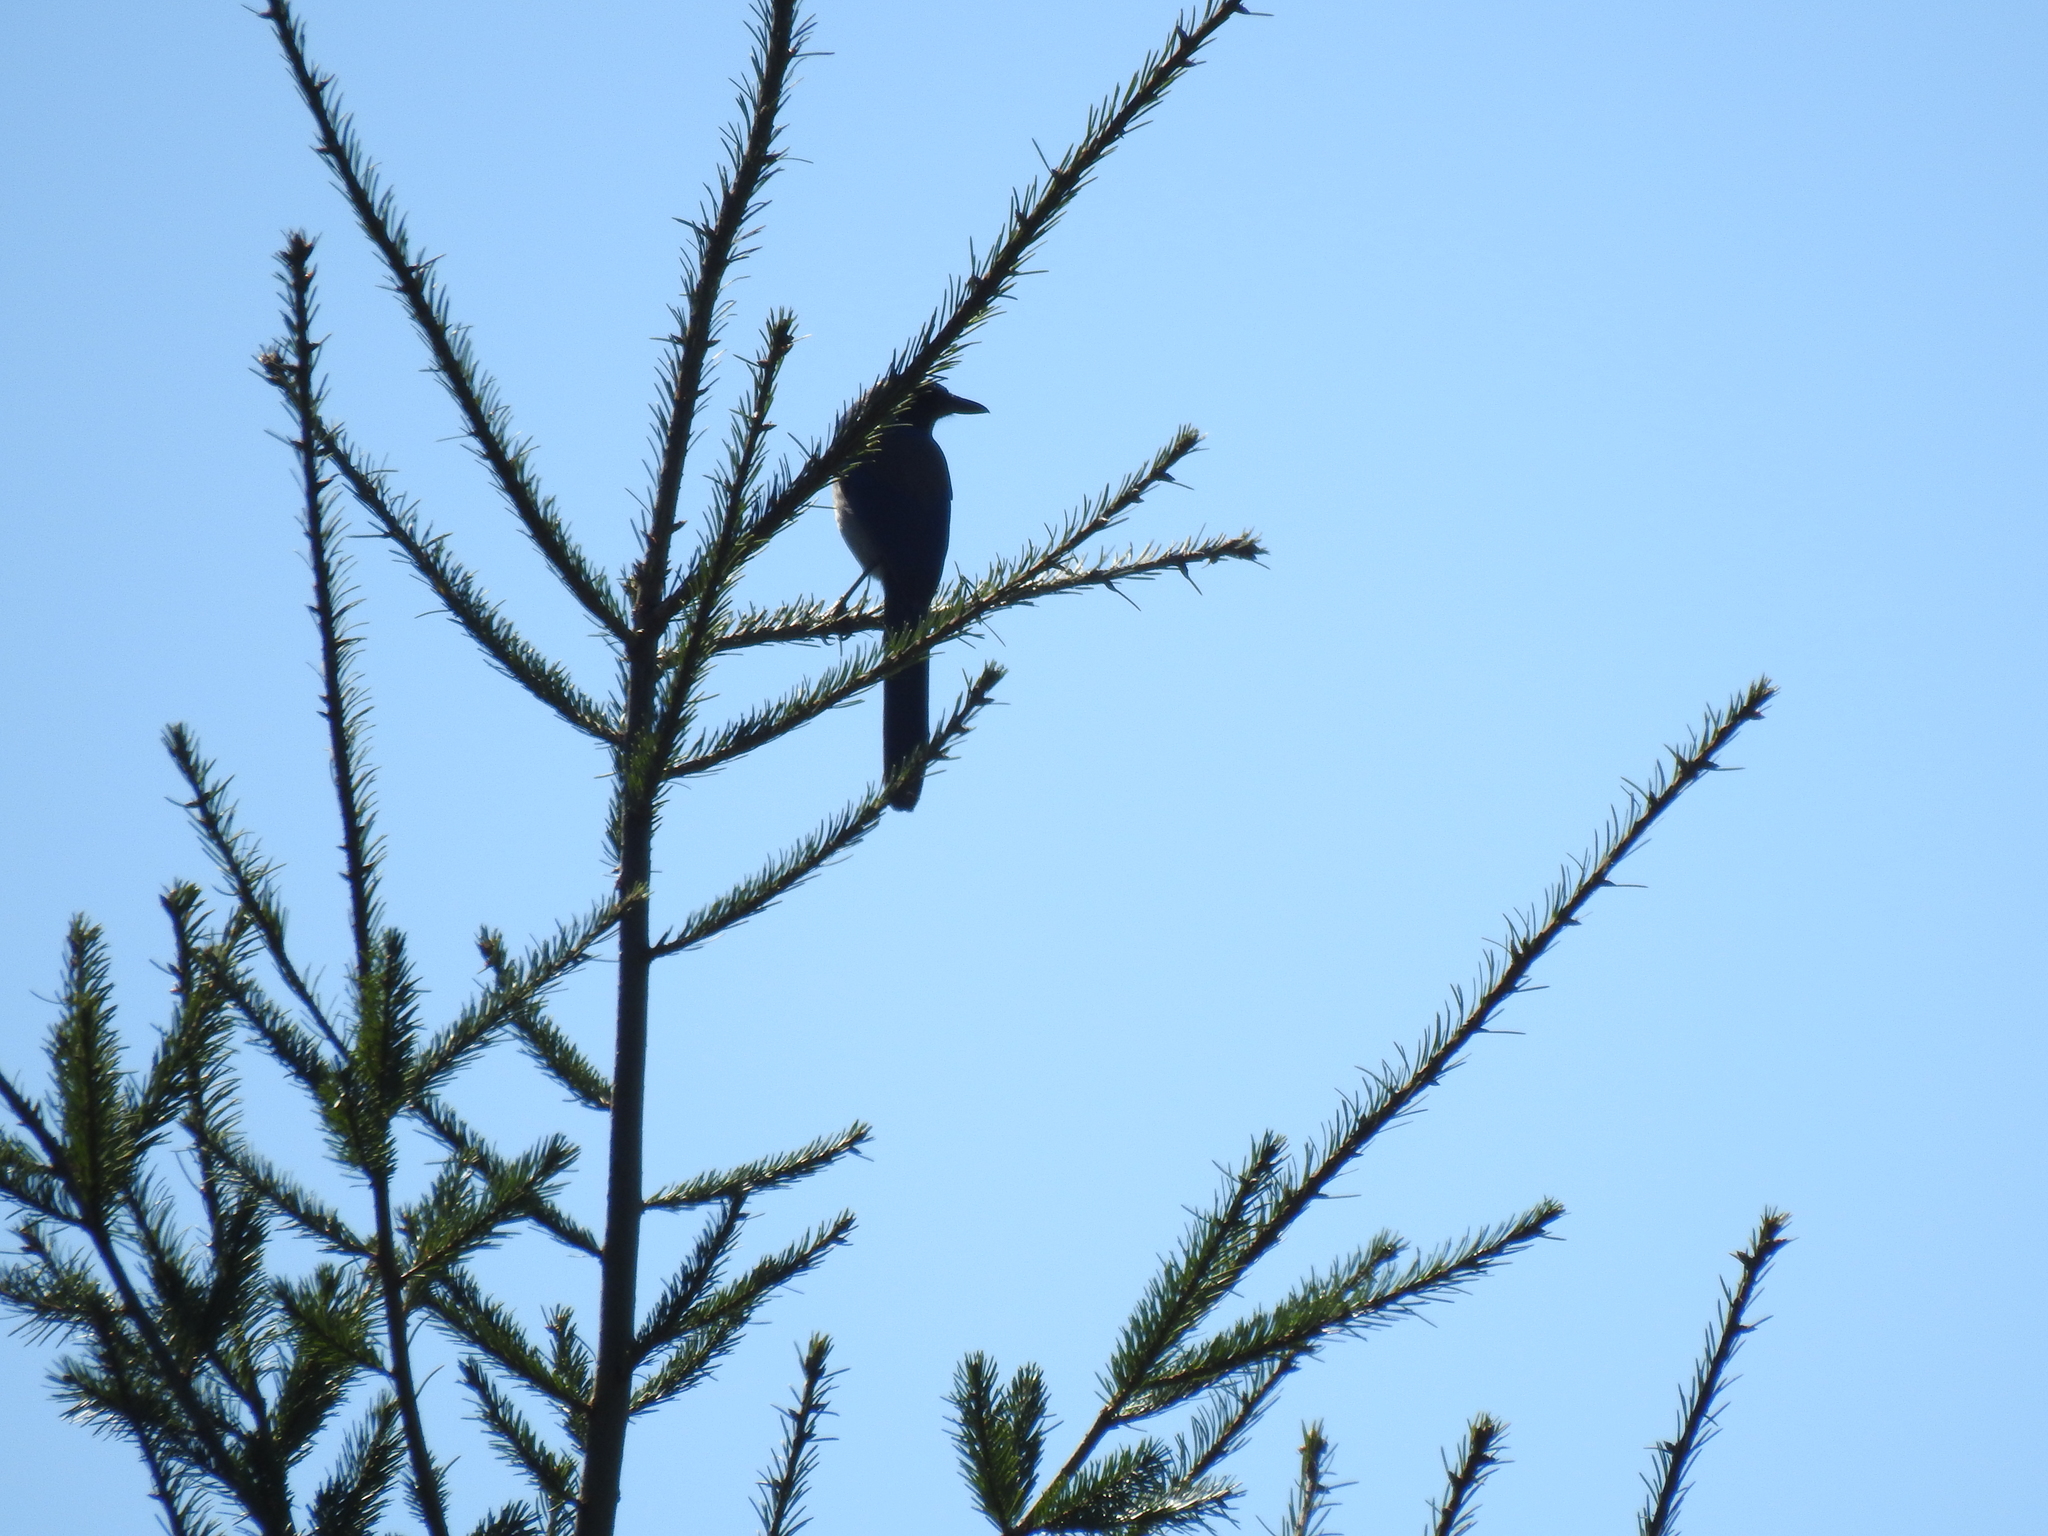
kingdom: Animalia
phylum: Chordata
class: Aves
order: Passeriformes
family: Corvidae
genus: Aphelocoma
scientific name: Aphelocoma californica
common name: California scrub-jay
